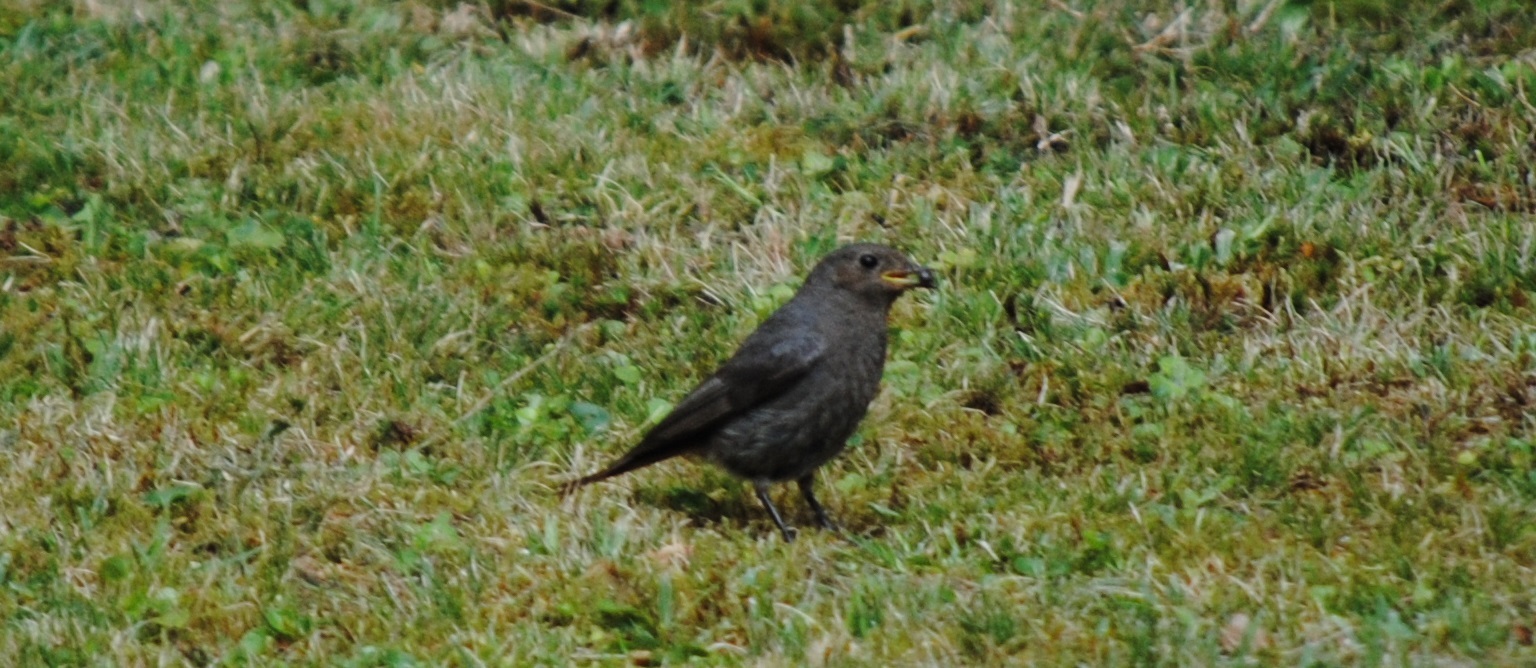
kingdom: Animalia
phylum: Chordata
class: Aves
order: Passeriformes
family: Muscicapidae
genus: Phoenicurus
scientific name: Phoenicurus ochruros
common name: Black redstart
